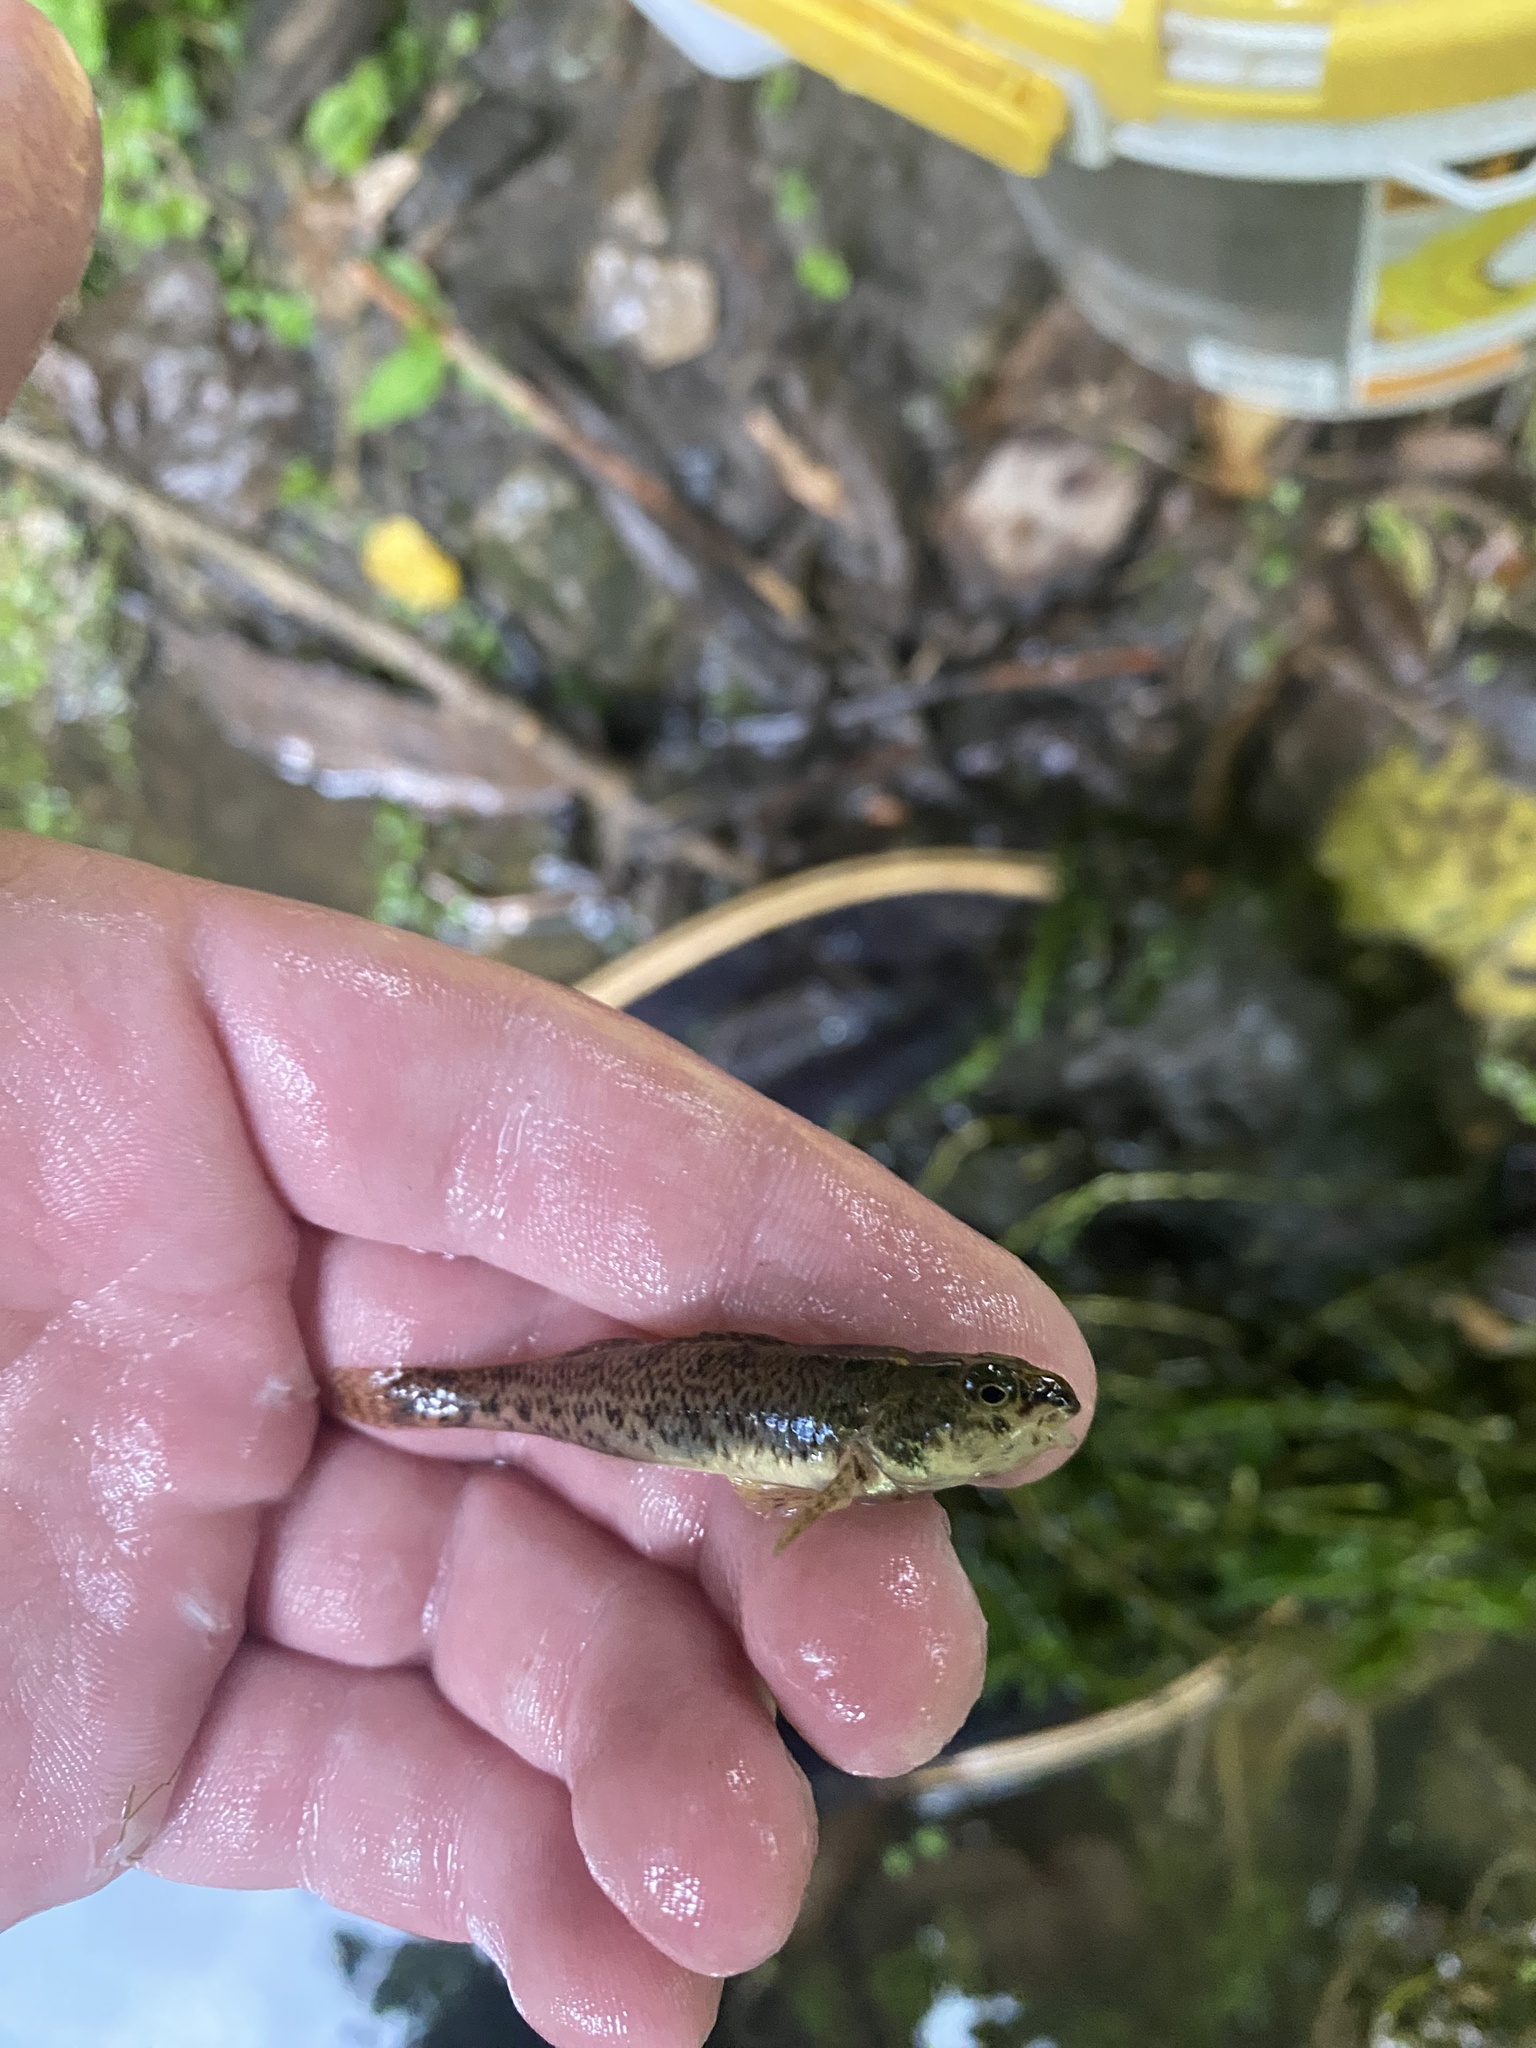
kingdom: Animalia
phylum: Chordata
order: Perciformes
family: Percidae
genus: Etheostoma
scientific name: Etheostoma nigrum
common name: Johnny darter
